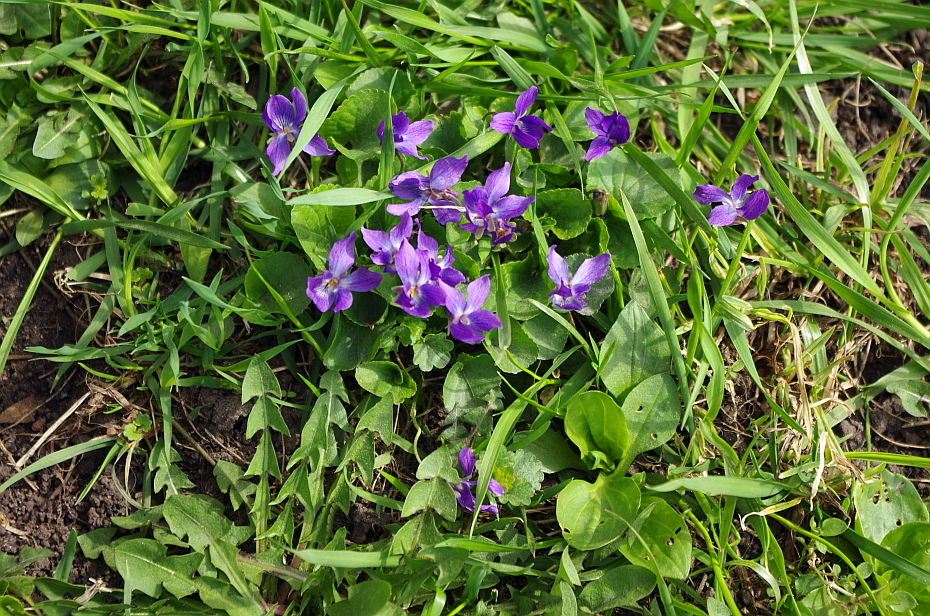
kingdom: Plantae
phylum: Tracheophyta
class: Magnoliopsida
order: Malpighiales
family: Violaceae
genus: Viola
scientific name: Viola odorata
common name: Sweet violet
